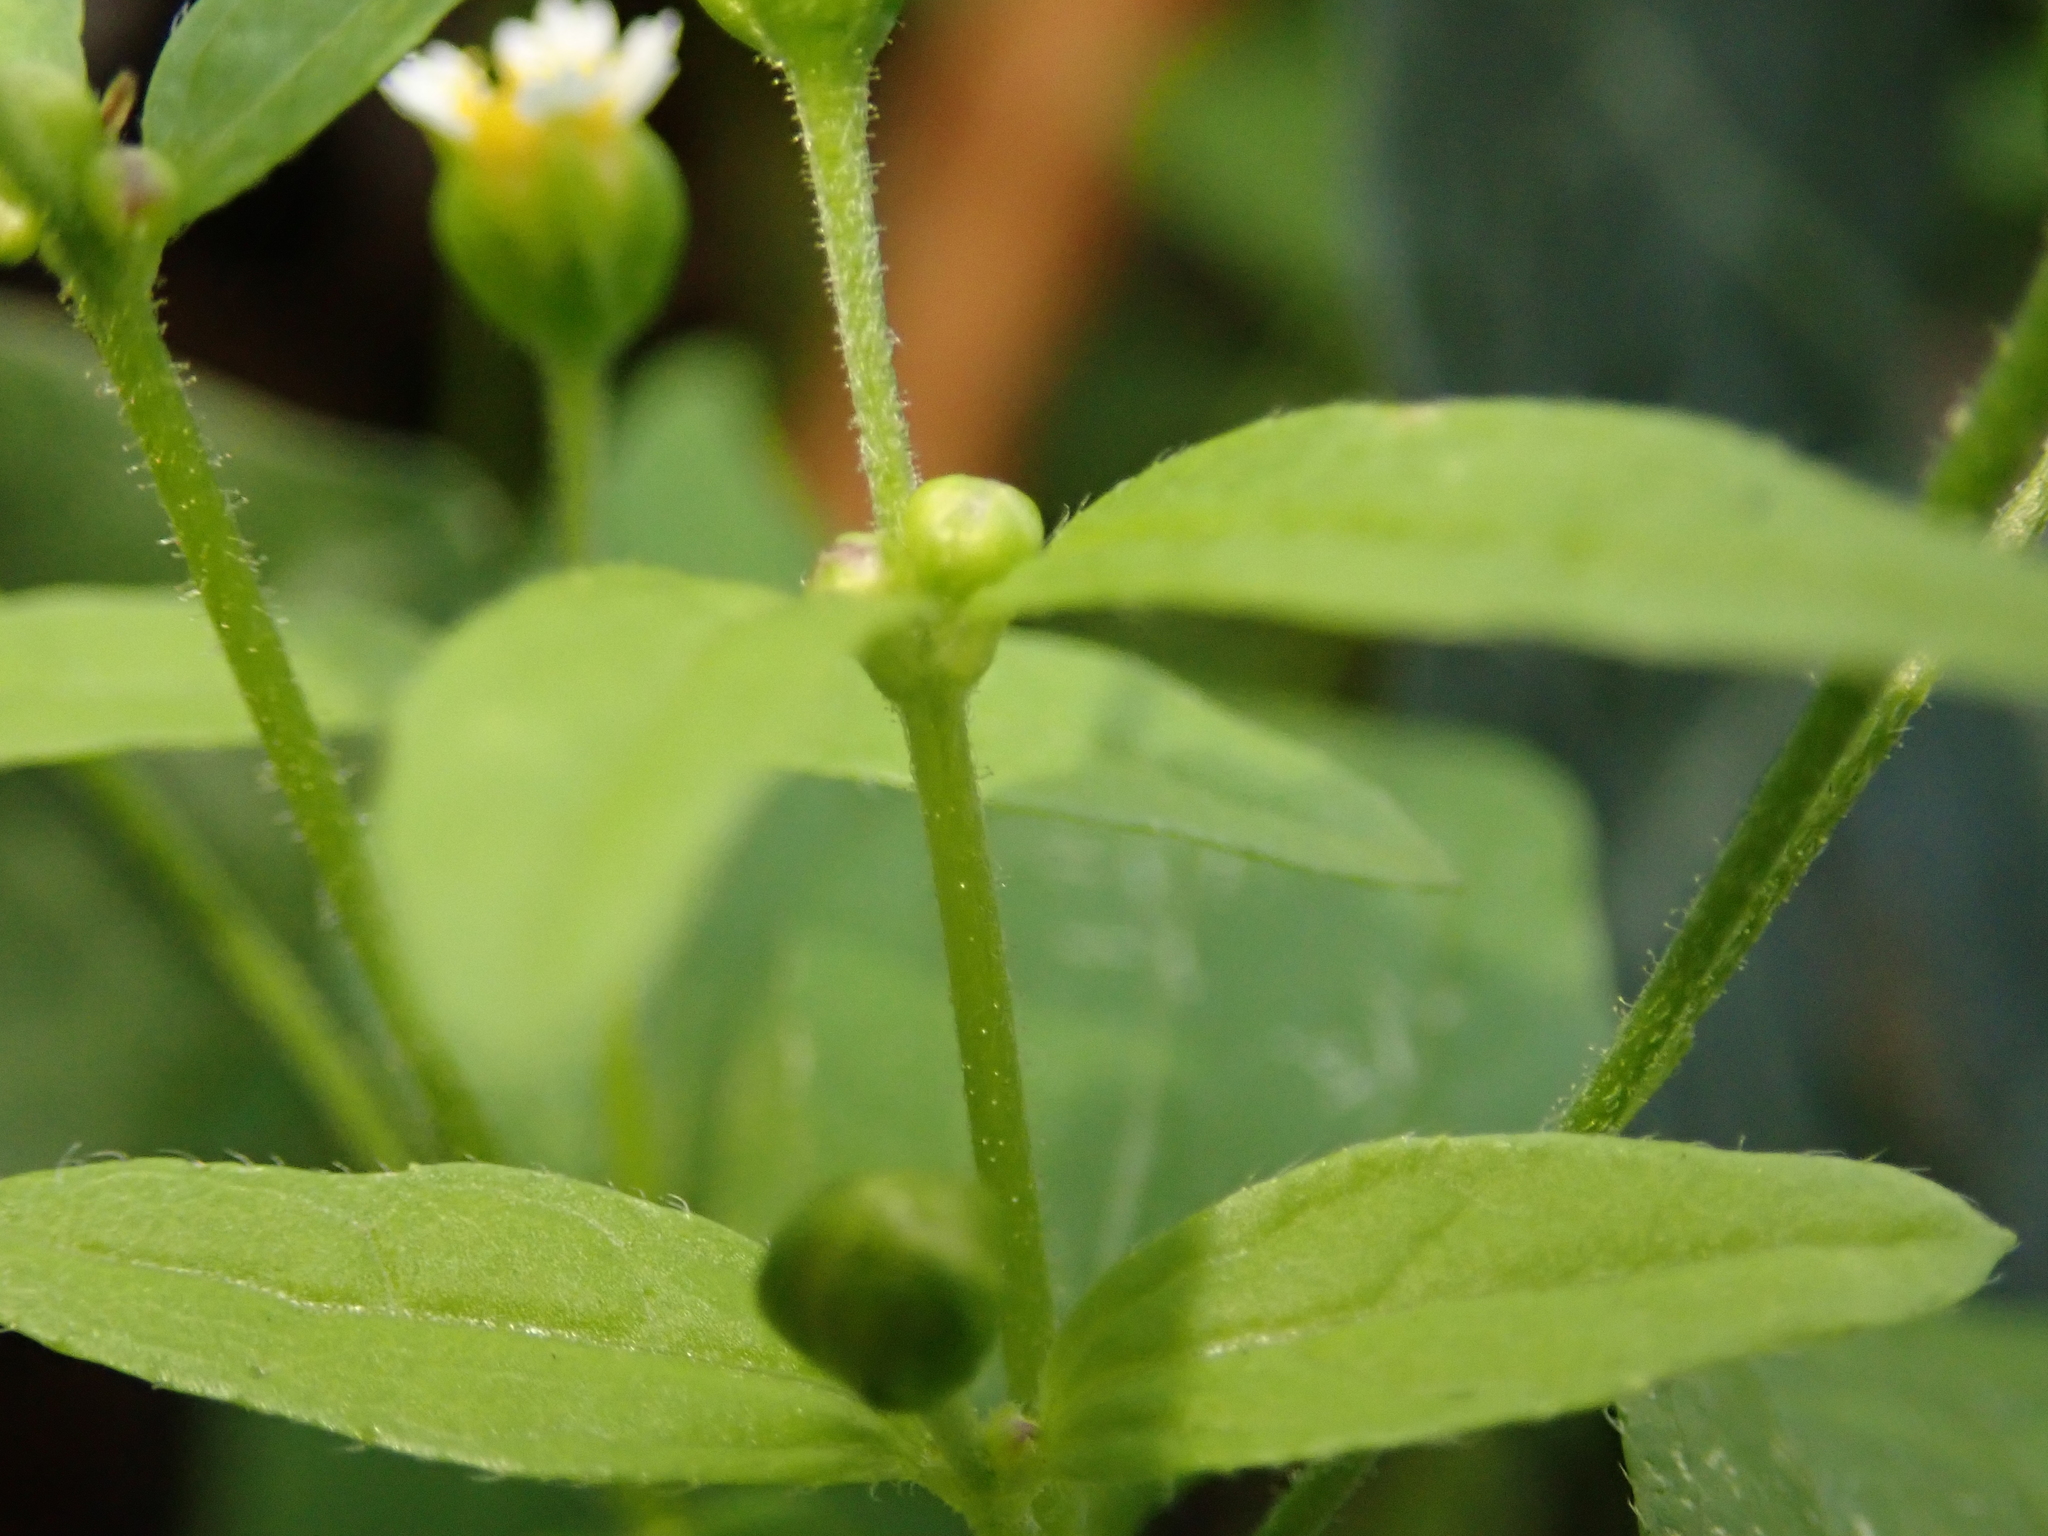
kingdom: Plantae
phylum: Tracheophyta
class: Magnoliopsida
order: Asterales
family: Asteraceae
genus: Galinsoga
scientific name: Galinsoga quadriradiata
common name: Shaggy soldier
